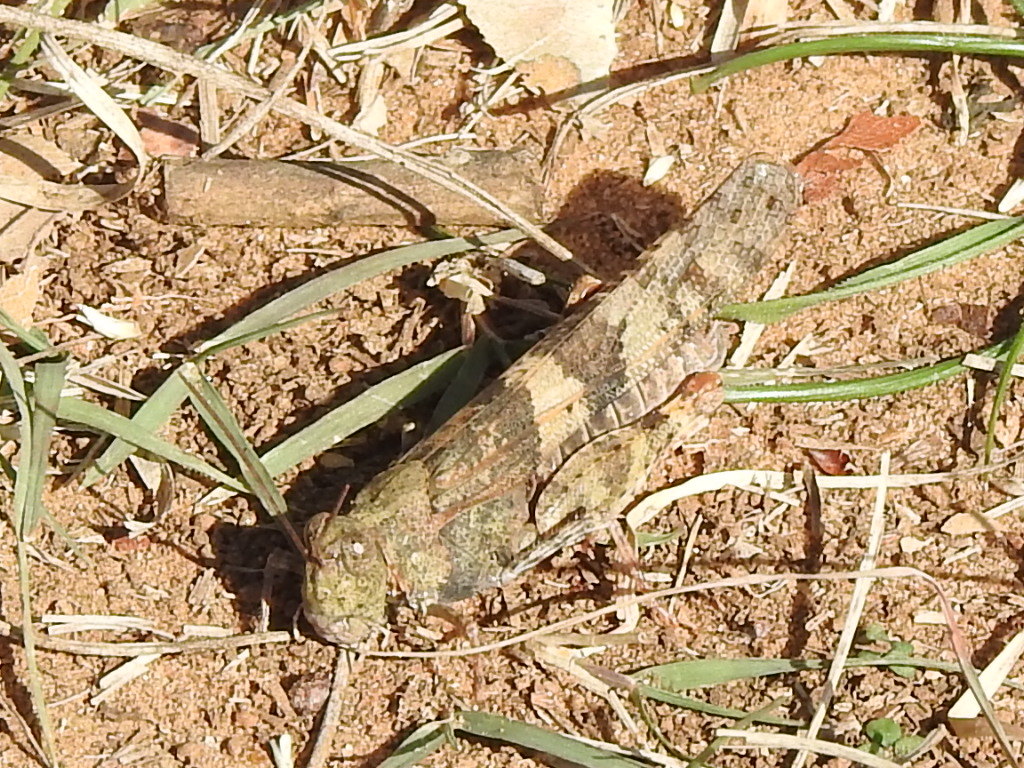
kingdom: Animalia
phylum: Arthropoda
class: Insecta
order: Orthoptera
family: Acrididae
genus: Trimerotropis
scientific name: Trimerotropis pallidipennis
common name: Pallid-winged grasshopper
